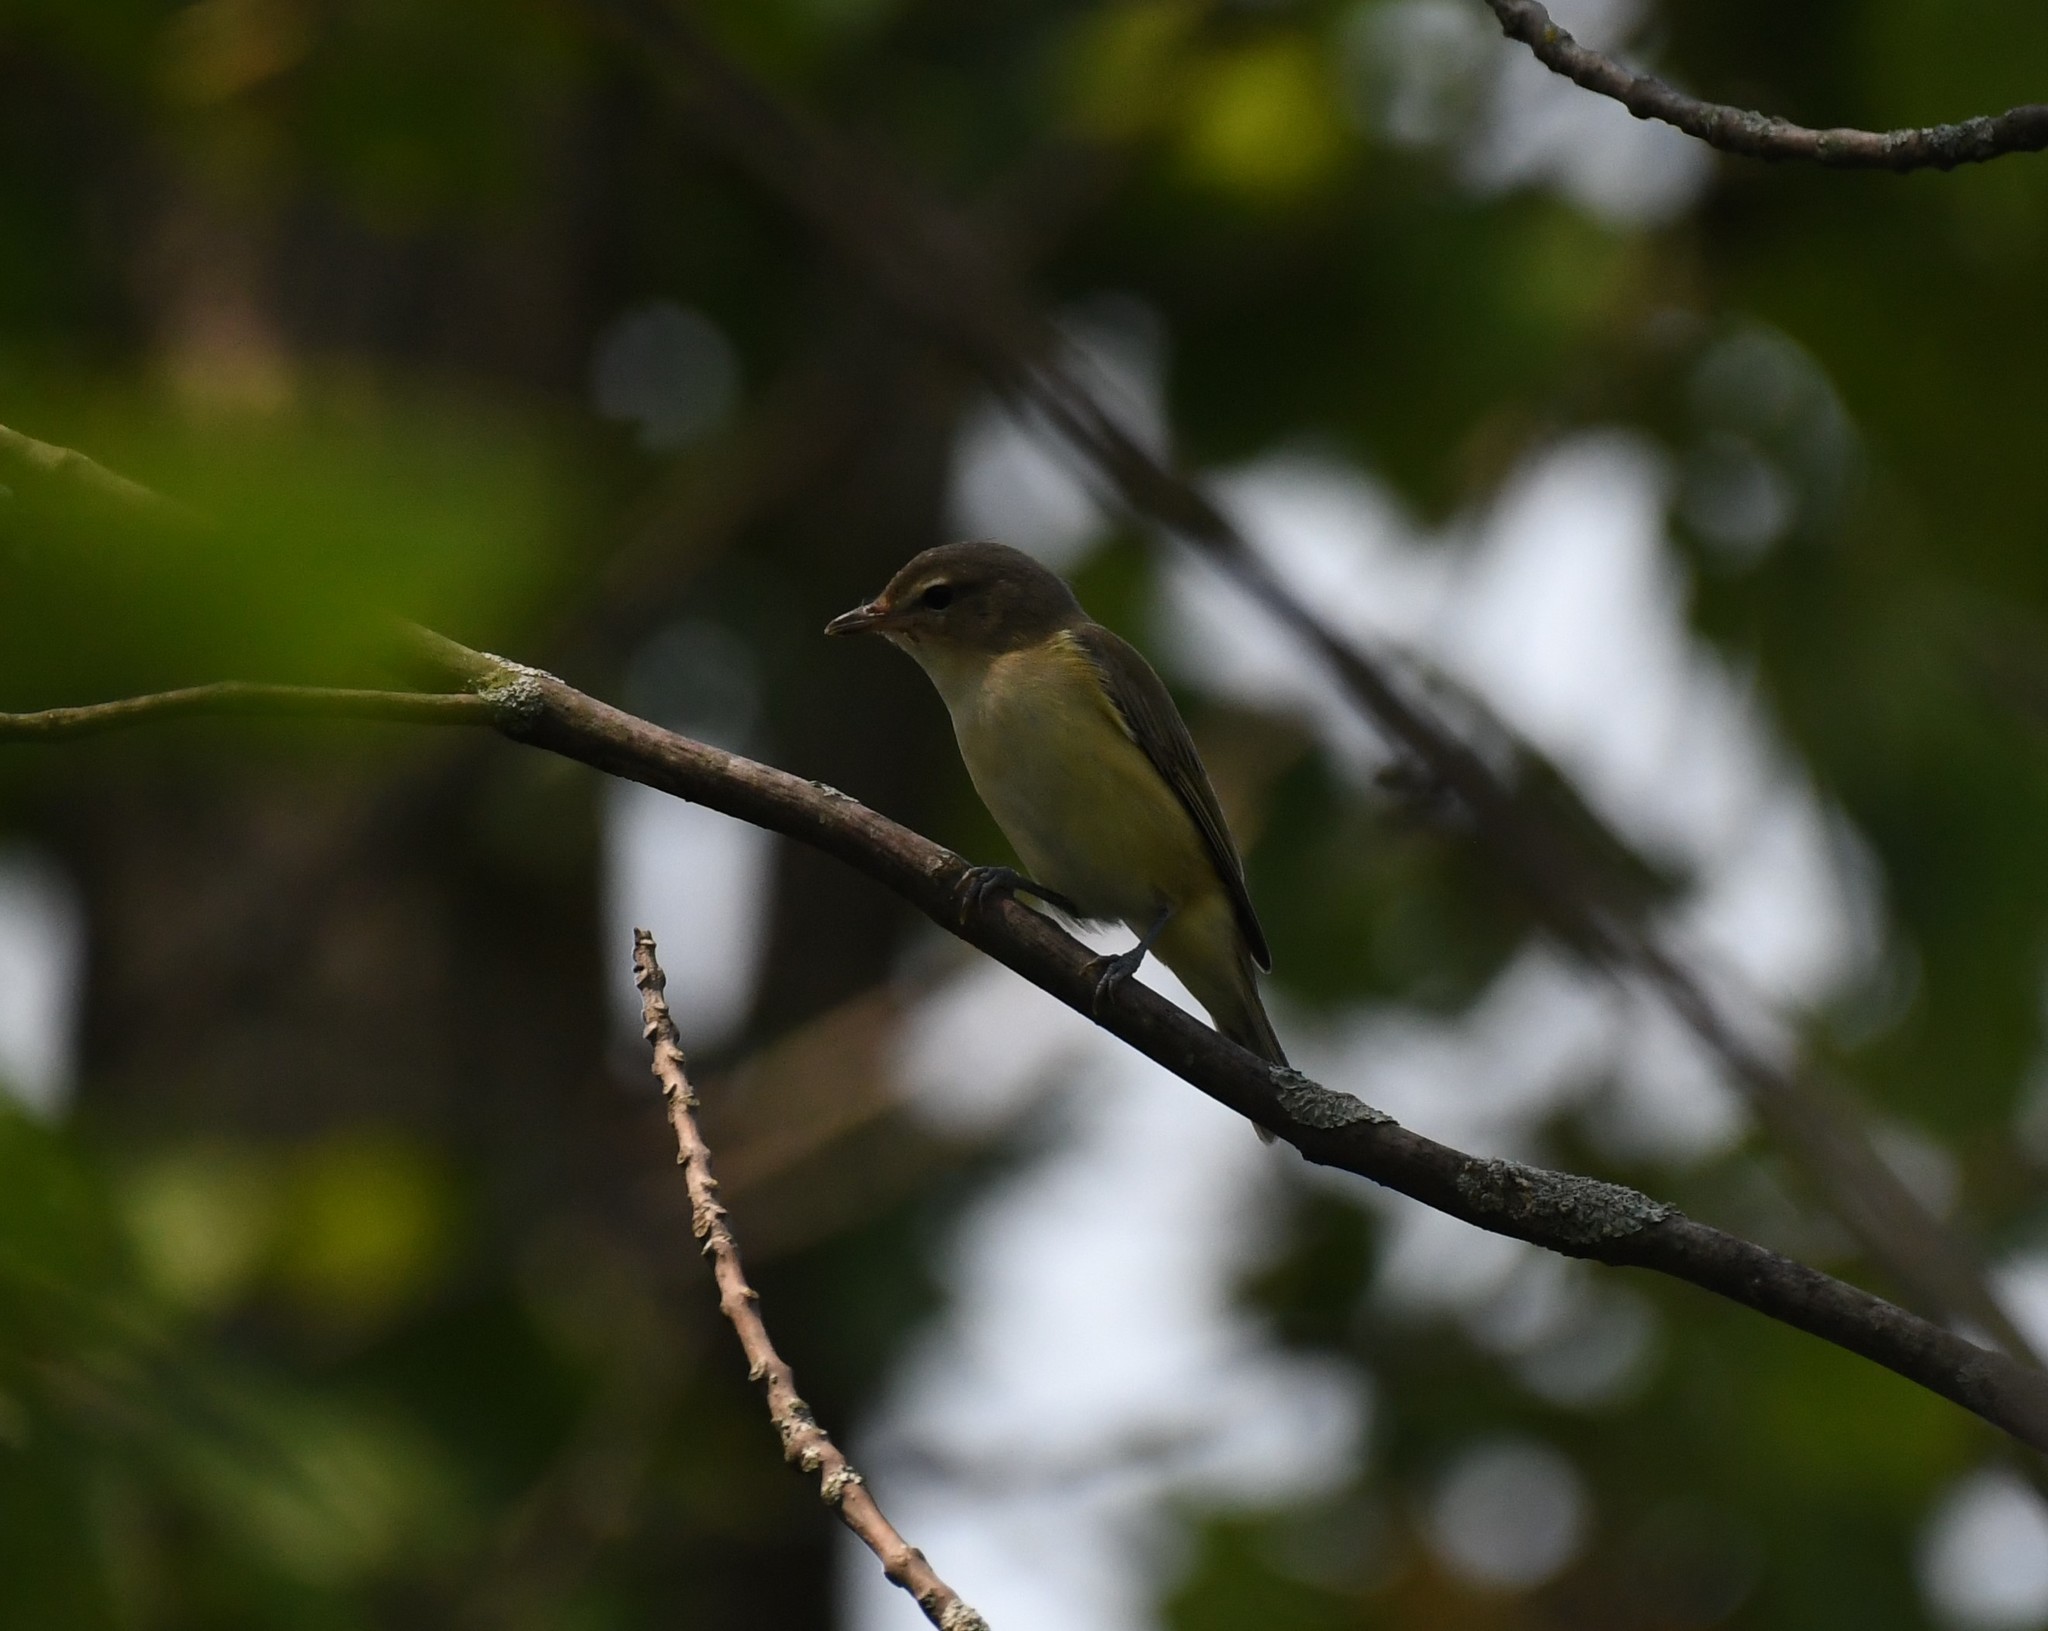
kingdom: Animalia
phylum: Chordata
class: Aves
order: Passeriformes
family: Vireonidae
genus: Vireo
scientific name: Vireo gilvus
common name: Warbling vireo
